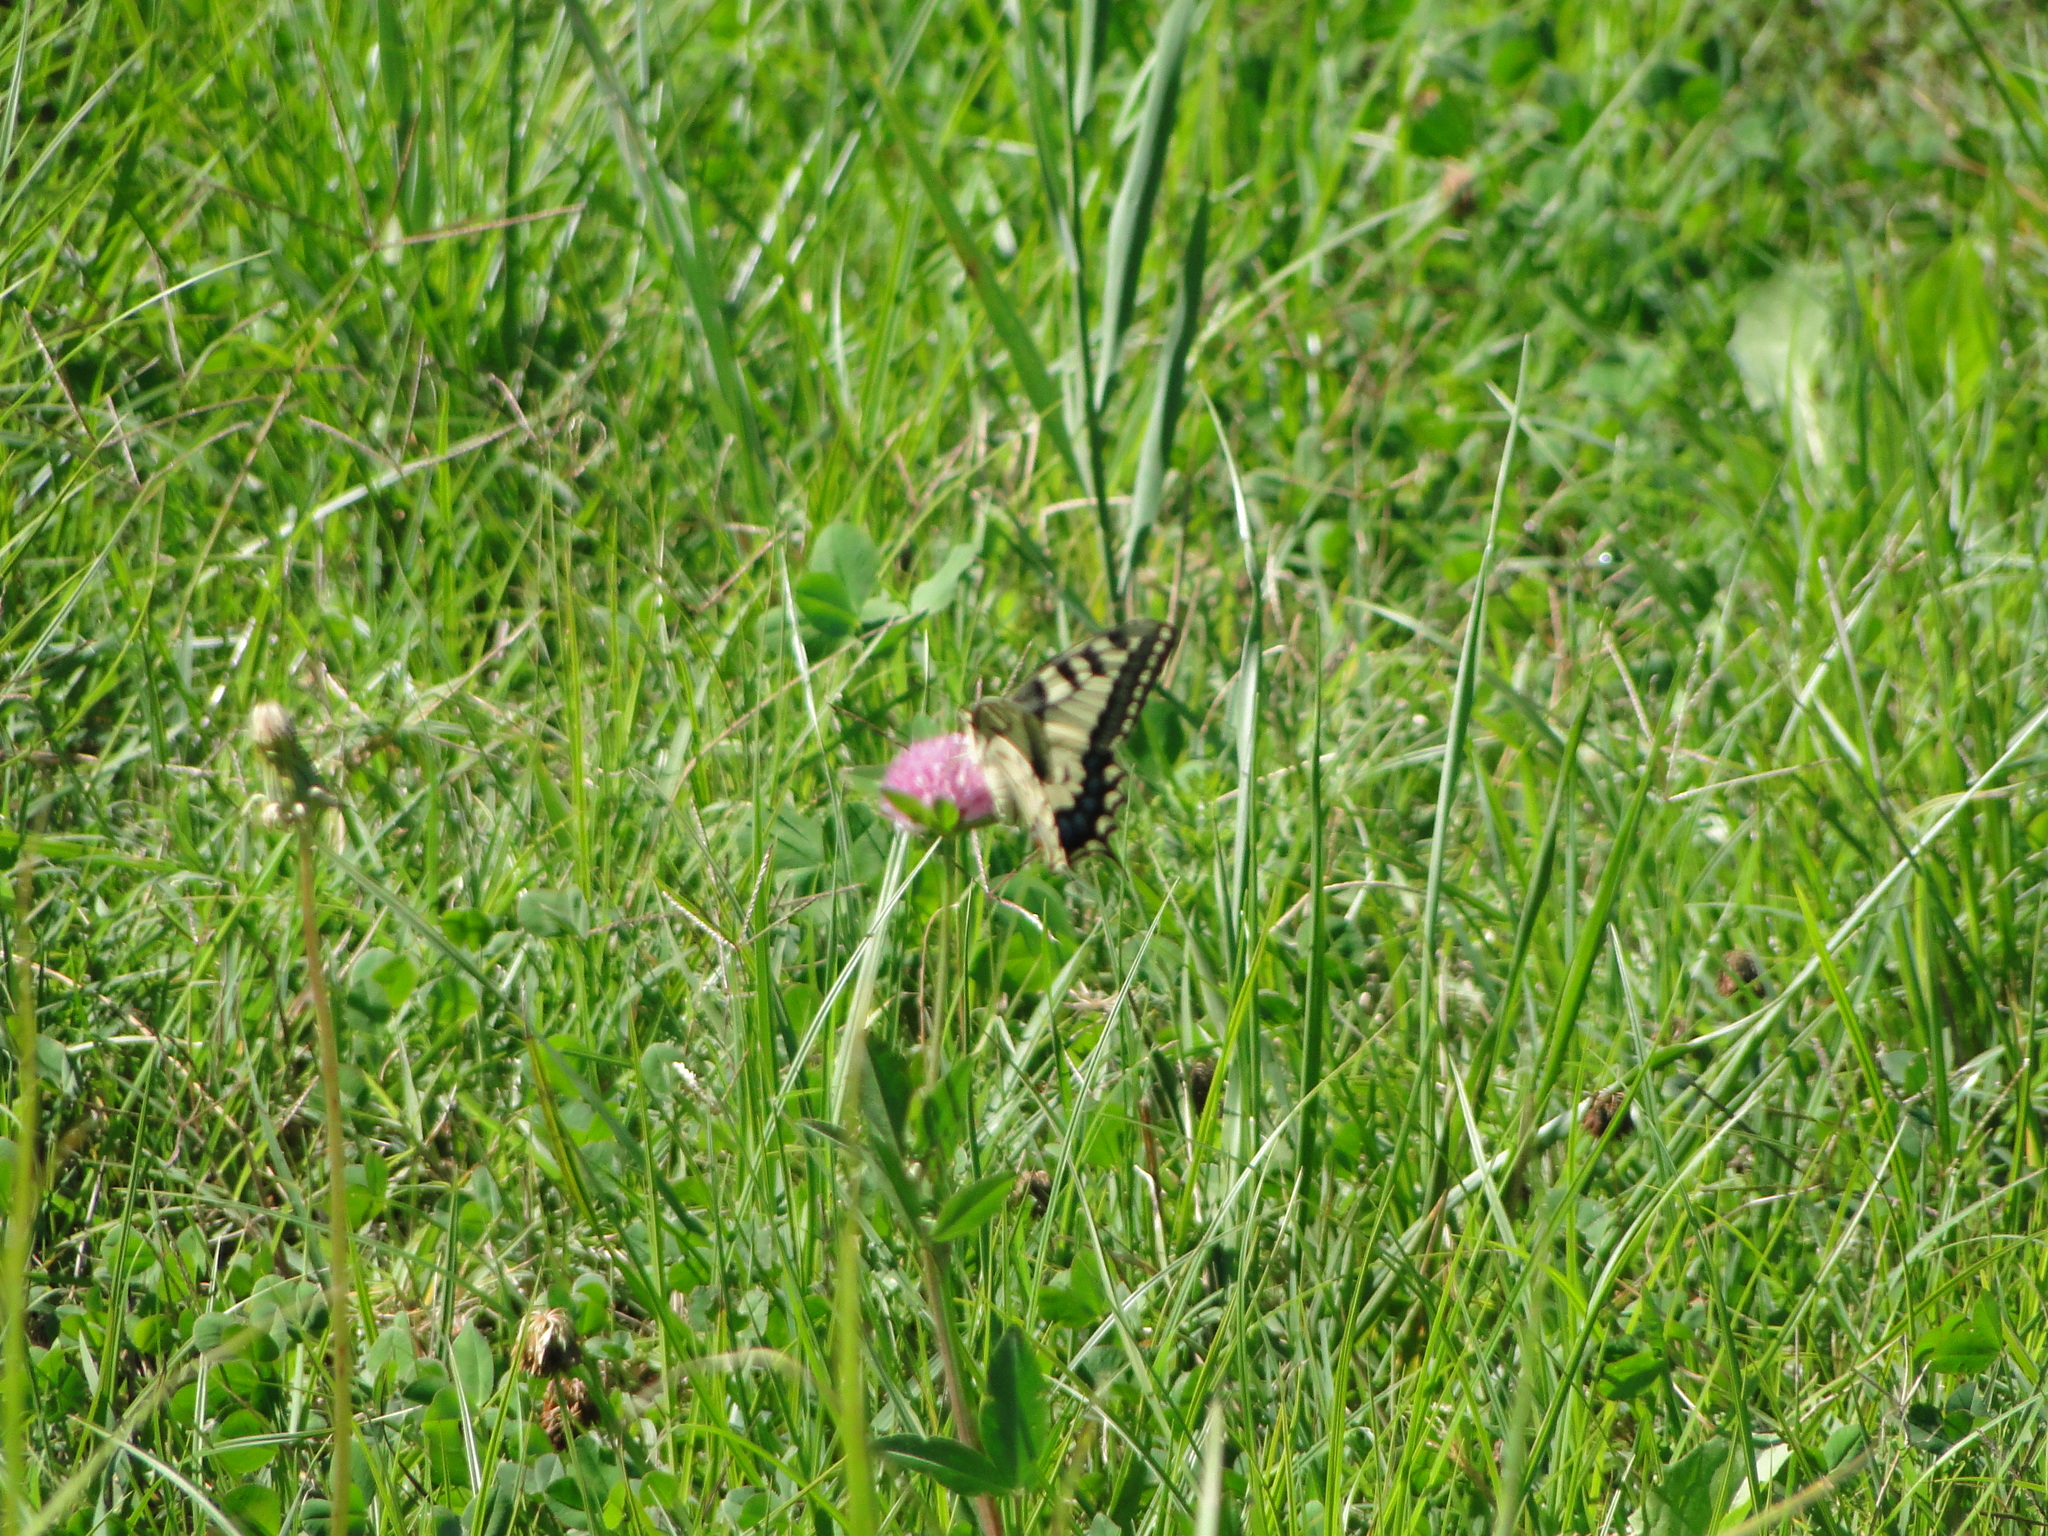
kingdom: Animalia
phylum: Arthropoda
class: Insecta
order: Lepidoptera
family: Papilionidae
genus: Papilio
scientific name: Papilio machaon
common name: Swallowtail
